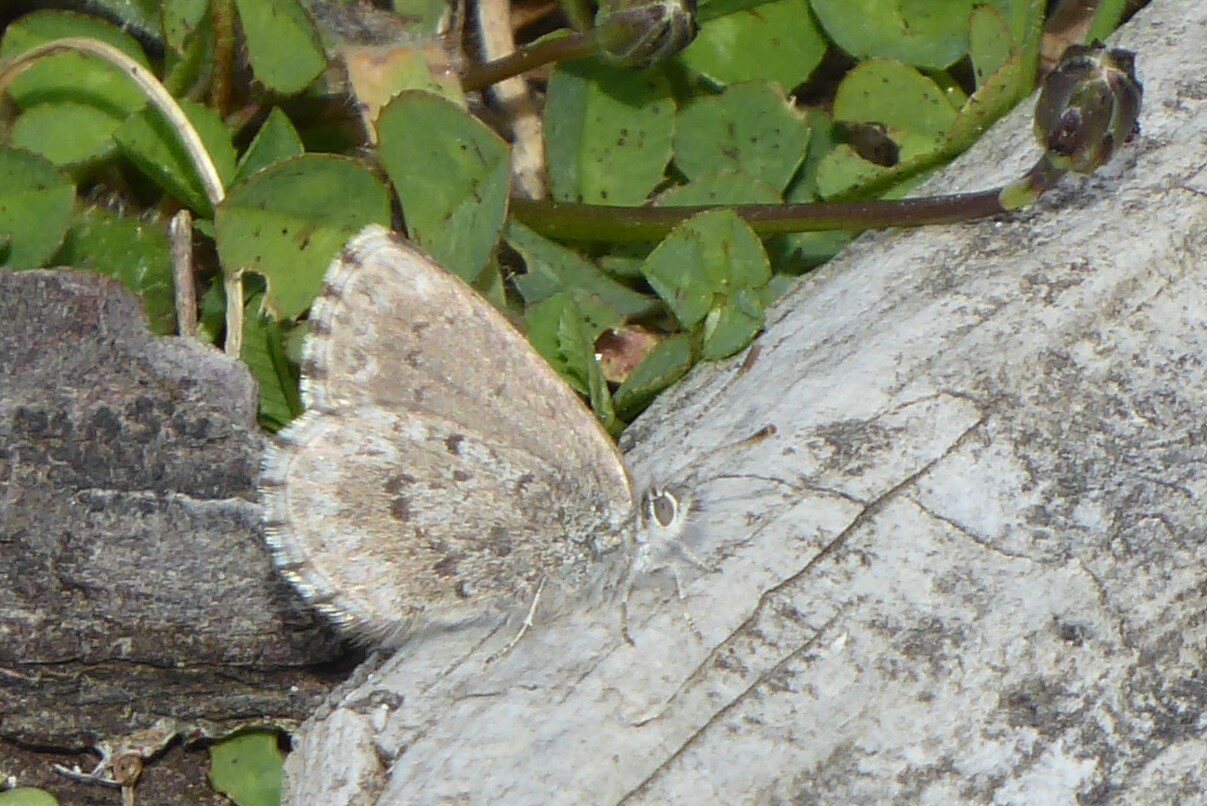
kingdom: Animalia
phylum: Arthropoda
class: Insecta
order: Lepidoptera
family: Lycaenidae
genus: Zizina
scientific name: Zizina oxleyi
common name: Southern blue
